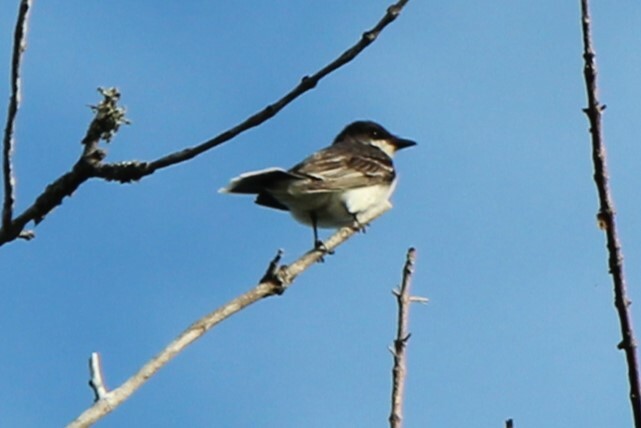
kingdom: Animalia
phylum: Chordata
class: Aves
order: Passeriformes
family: Tyrannidae
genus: Tyrannus
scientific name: Tyrannus tyrannus
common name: Eastern kingbird
